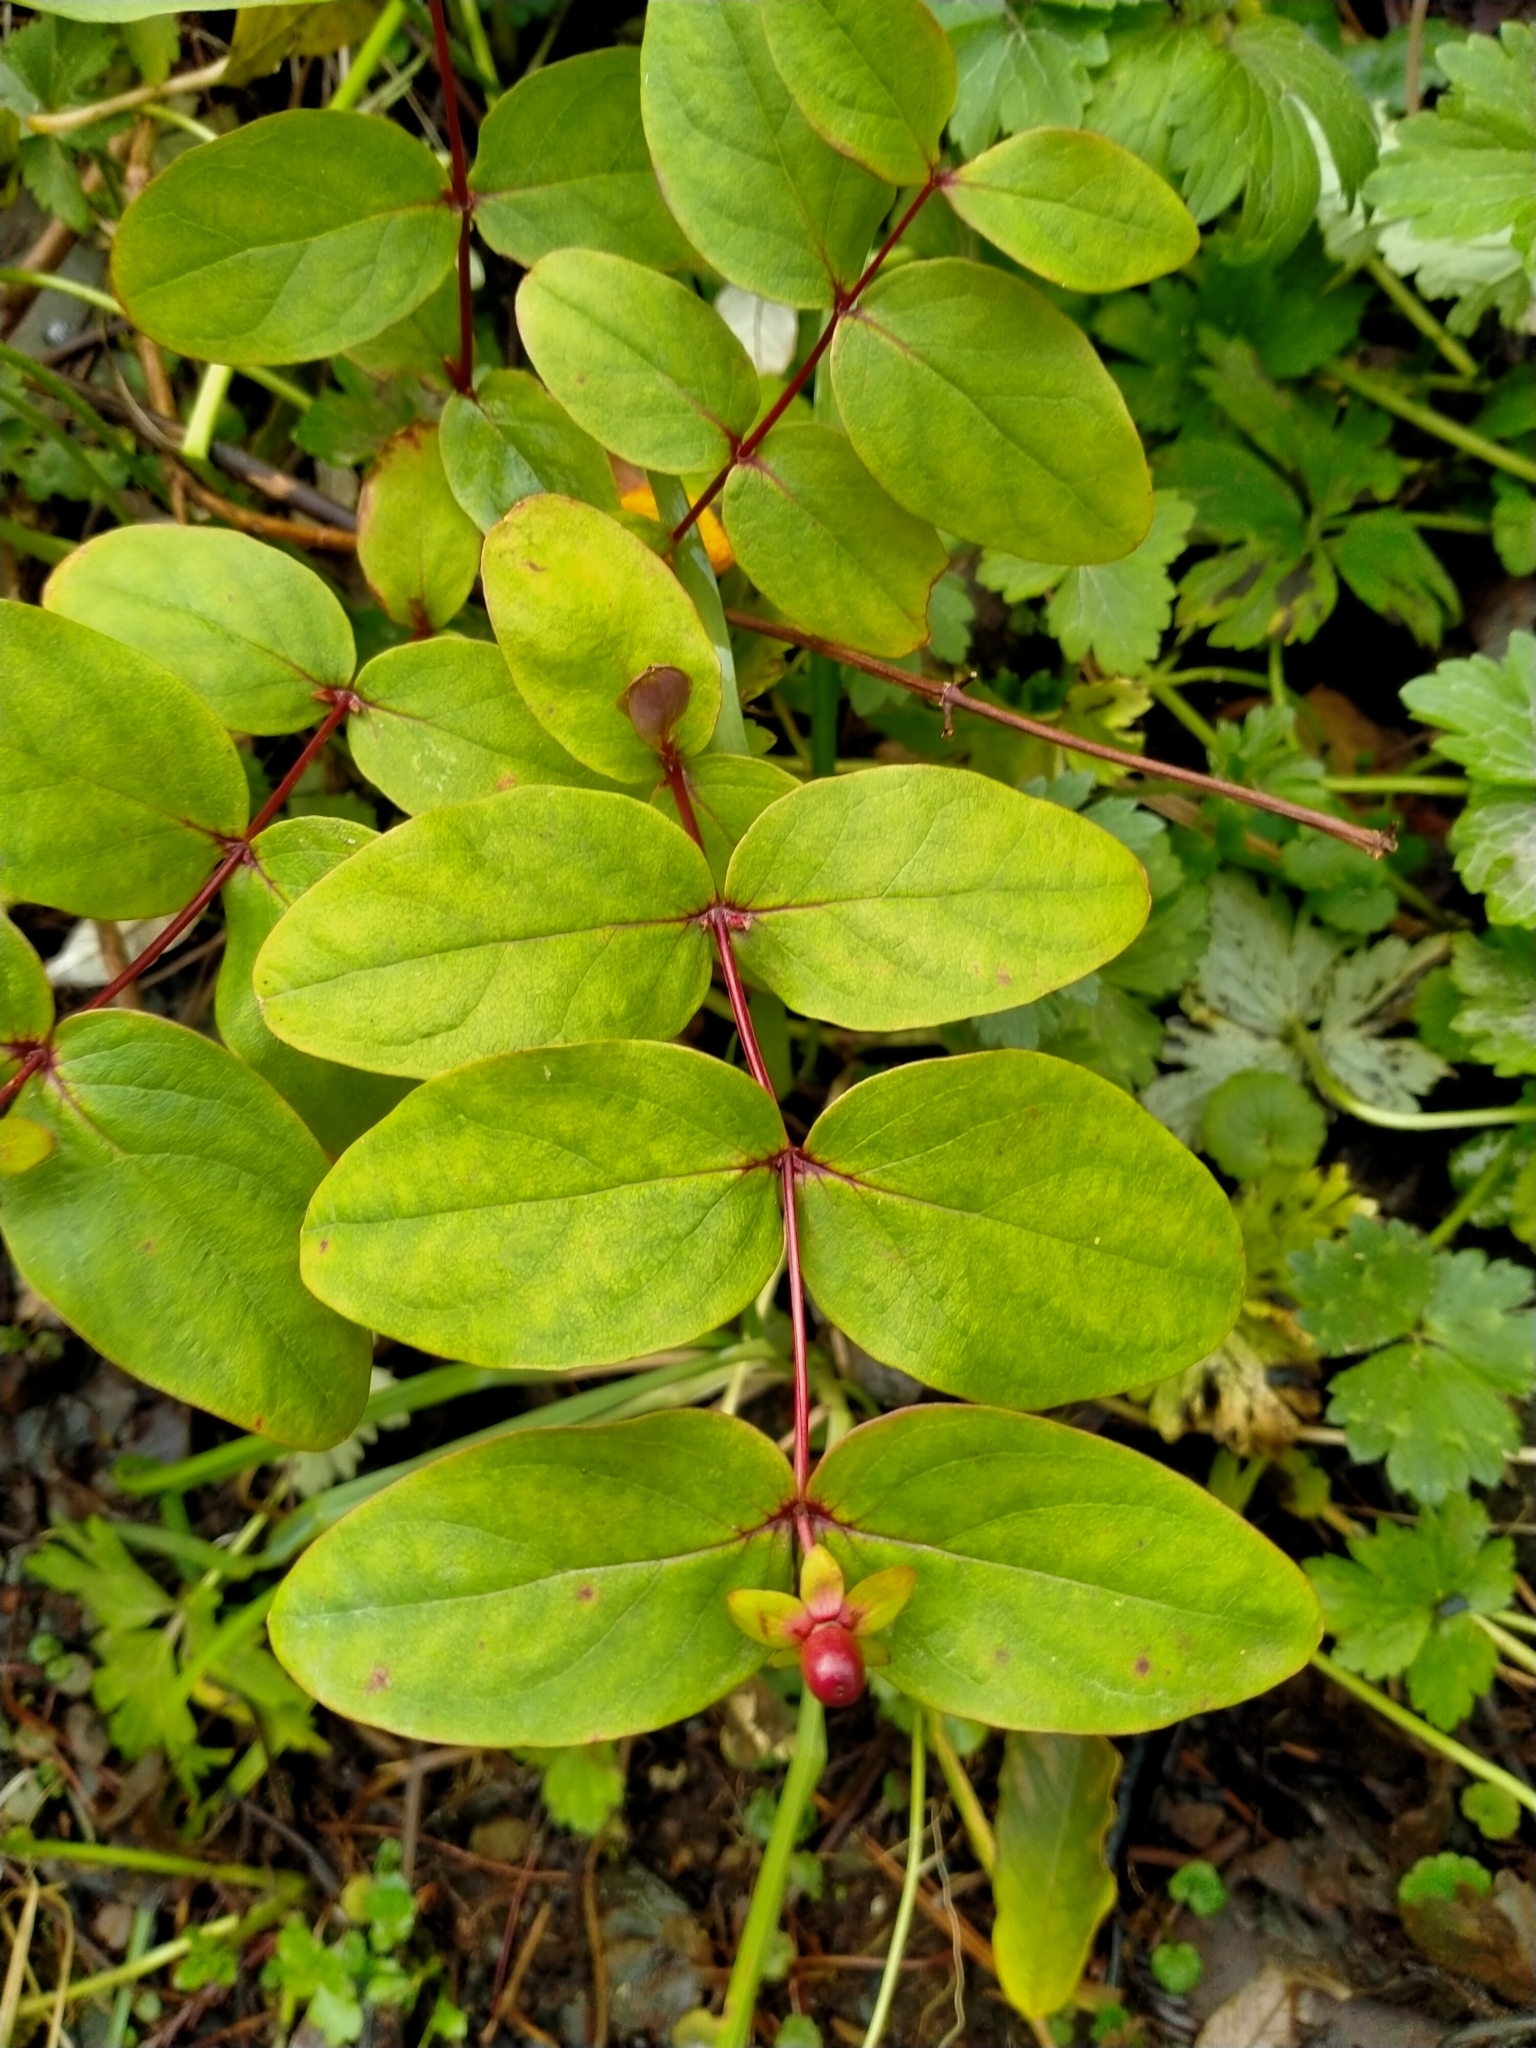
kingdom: Plantae
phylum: Tracheophyta
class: Magnoliopsida
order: Malpighiales
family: Hypericaceae
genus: Hypericum
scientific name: Hypericum androsaemum
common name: Sweet-amber
